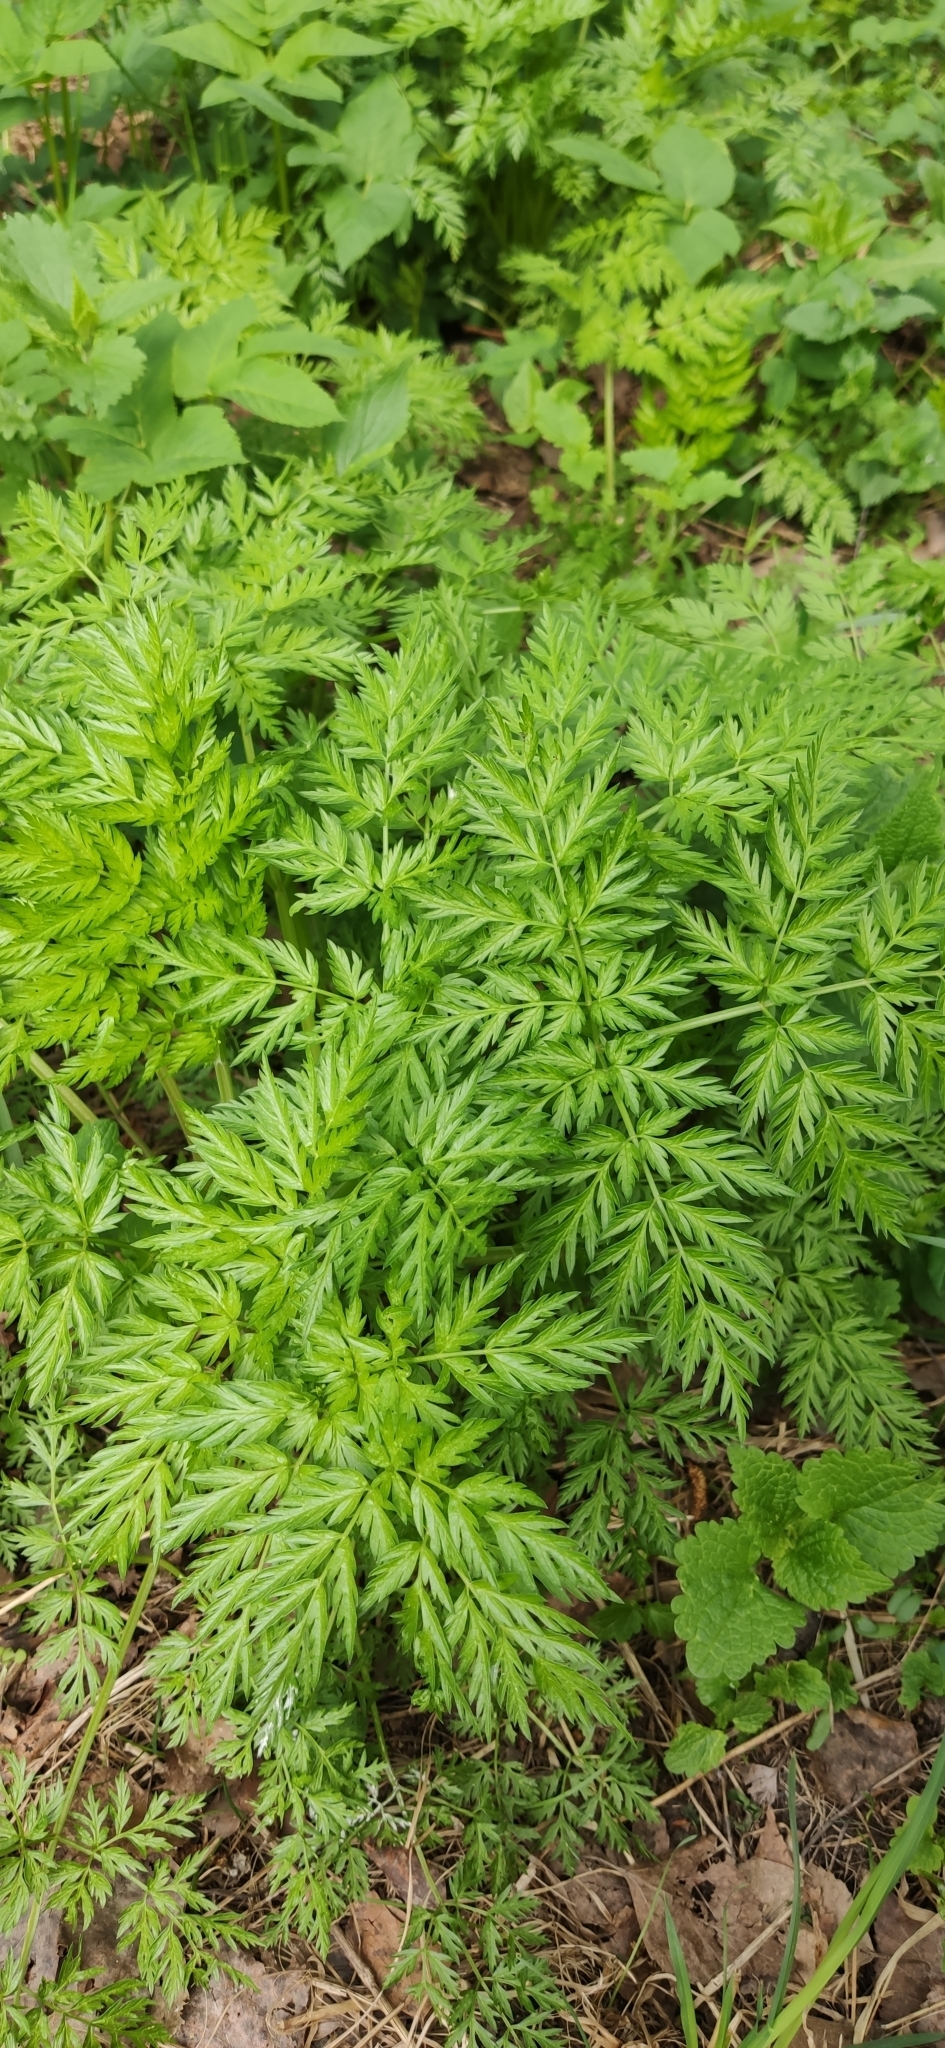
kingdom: Plantae
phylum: Tracheophyta
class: Magnoliopsida
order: Apiales
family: Apiaceae
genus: Anthriscus
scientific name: Anthriscus sylvestris
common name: Cow parsley
